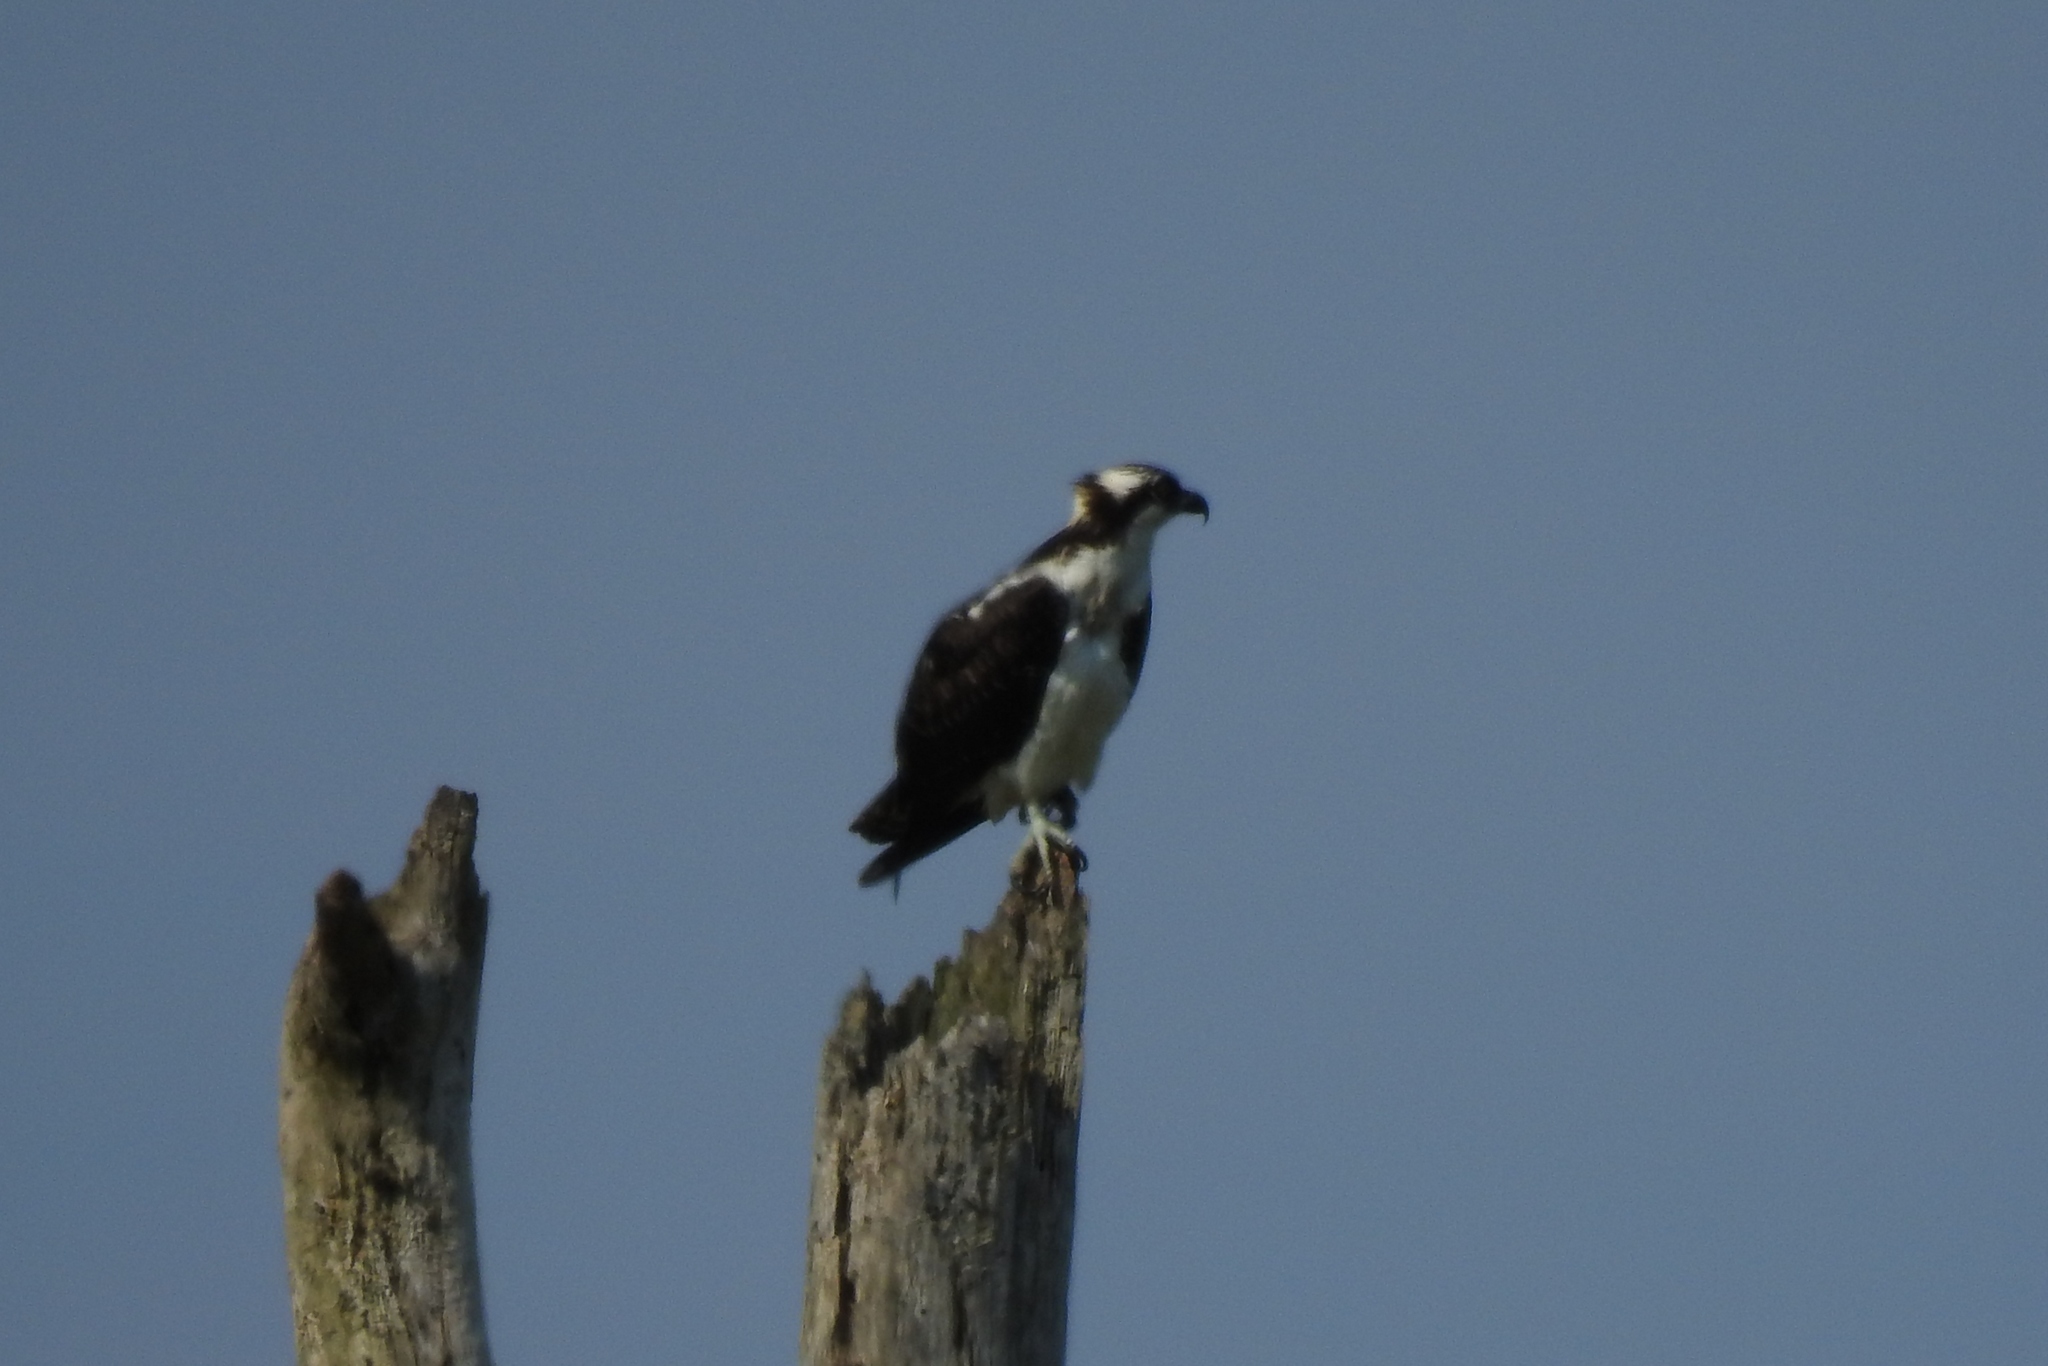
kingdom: Animalia
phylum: Chordata
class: Aves
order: Accipitriformes
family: Pandionidae
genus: Pandion
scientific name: Pandion haliaetus
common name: Osprey
